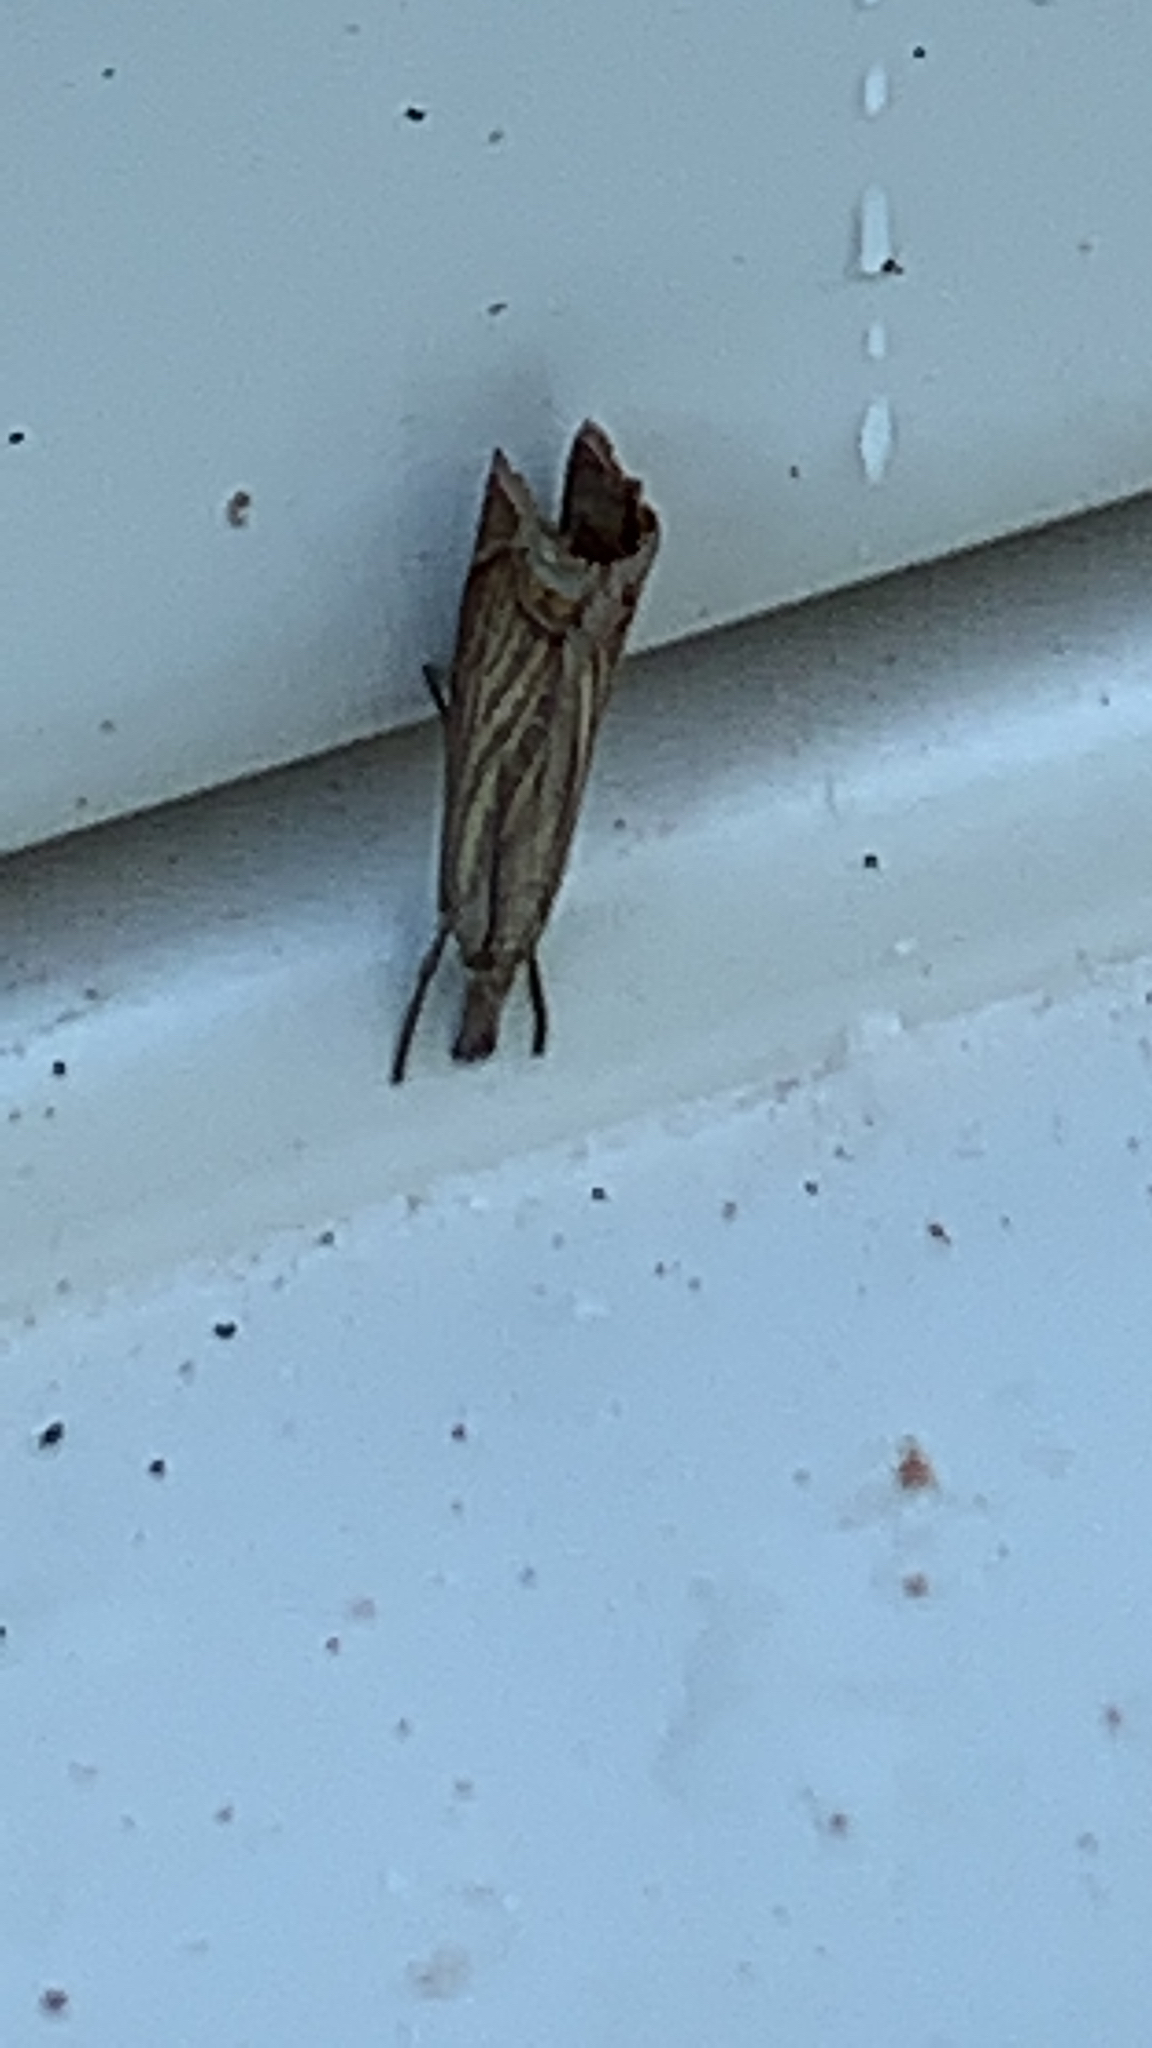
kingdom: Animalia
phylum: Arthropoda
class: Insecta
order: Lepidoptera
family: Crambidae
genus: Chrysoteuchia
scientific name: Chrysoteuchia culmella
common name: Garden grass-veneer
